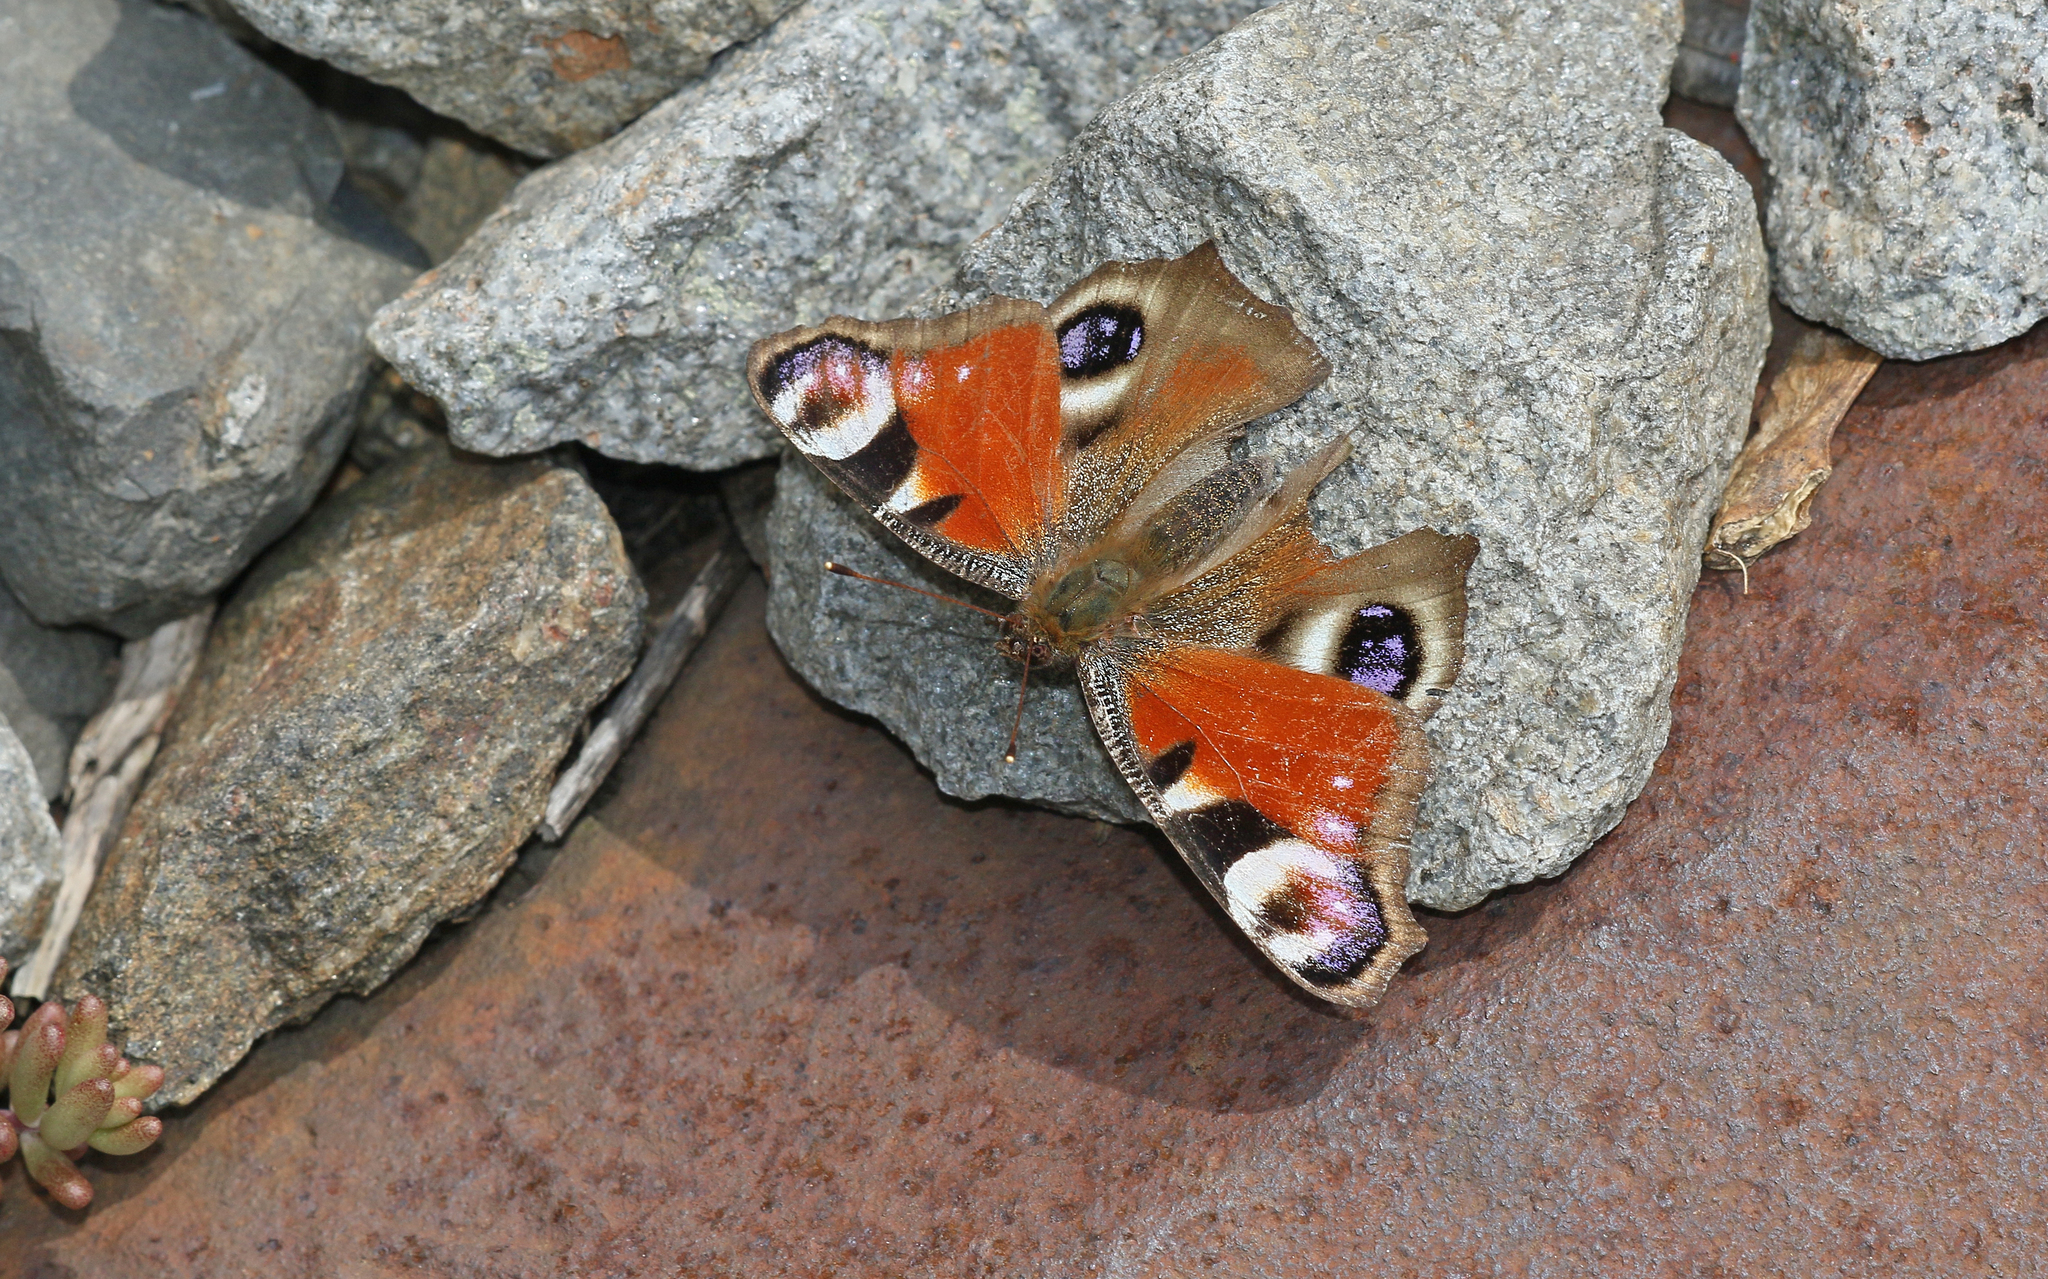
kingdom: Animalia
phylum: Arthropoda
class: Insecta
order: Lepidoptera
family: Nymphalidae
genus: Aglais
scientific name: Aglais io
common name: Peacock
